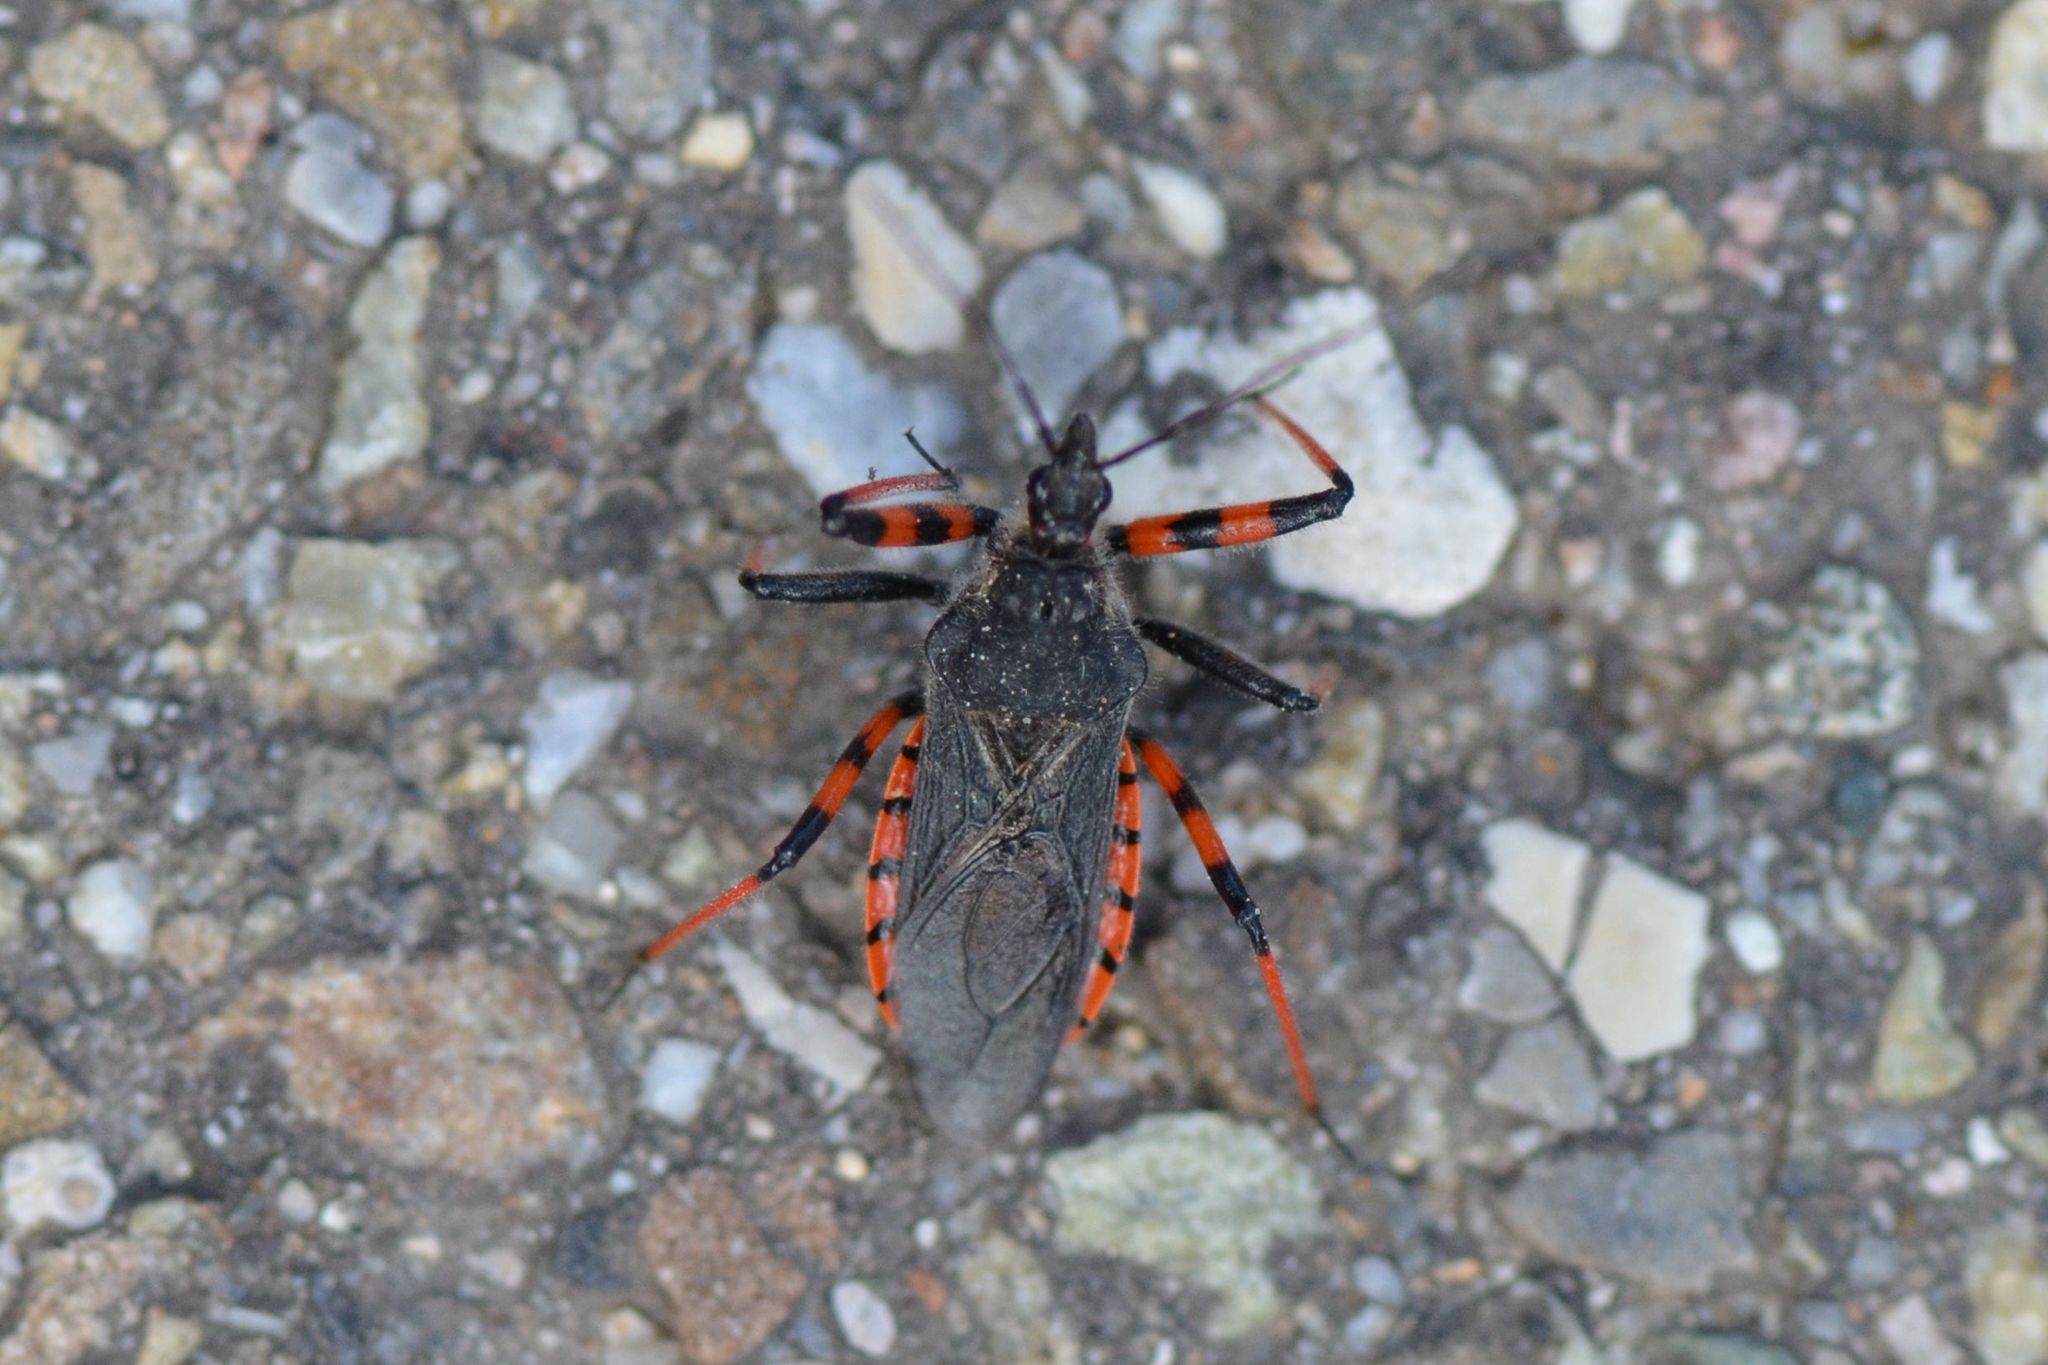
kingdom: Animalia
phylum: Arthropoda
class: Insecta
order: Hemiptera
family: Reduviidae
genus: Rhynocoris
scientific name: Rhynocoris annulatus
